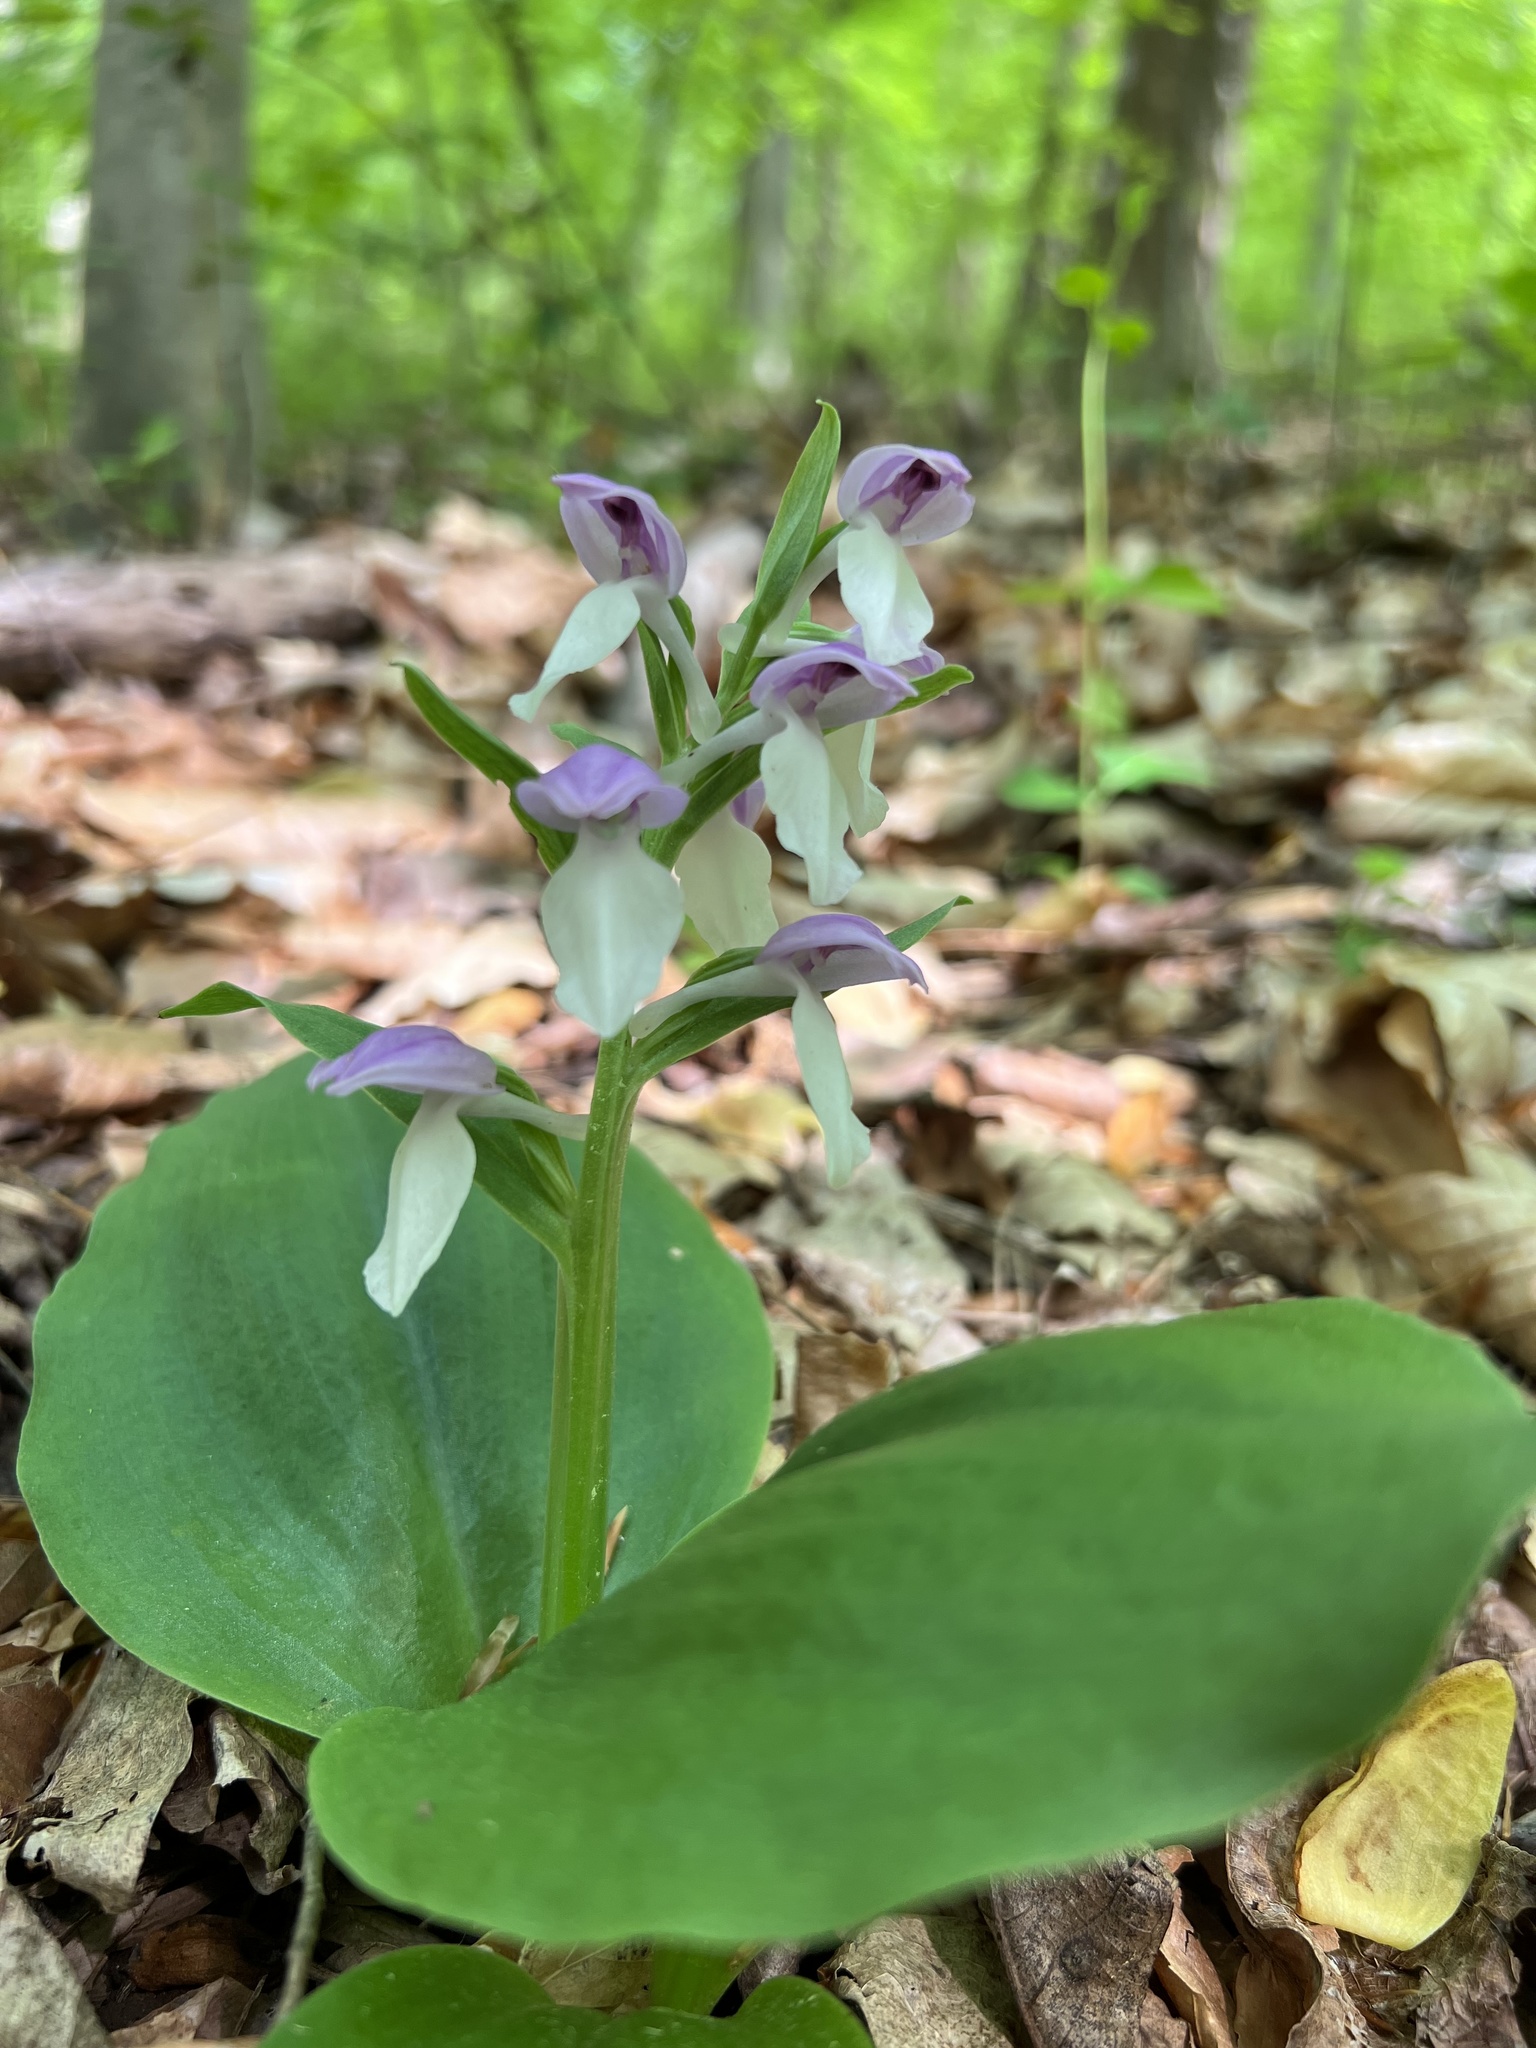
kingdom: Plantae
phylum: Tracheophyta
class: Liliopsida
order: Asparagales
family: Orchidaceae
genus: Galearis
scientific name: Galearis spectabilis
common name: Purple-hooded orchis
